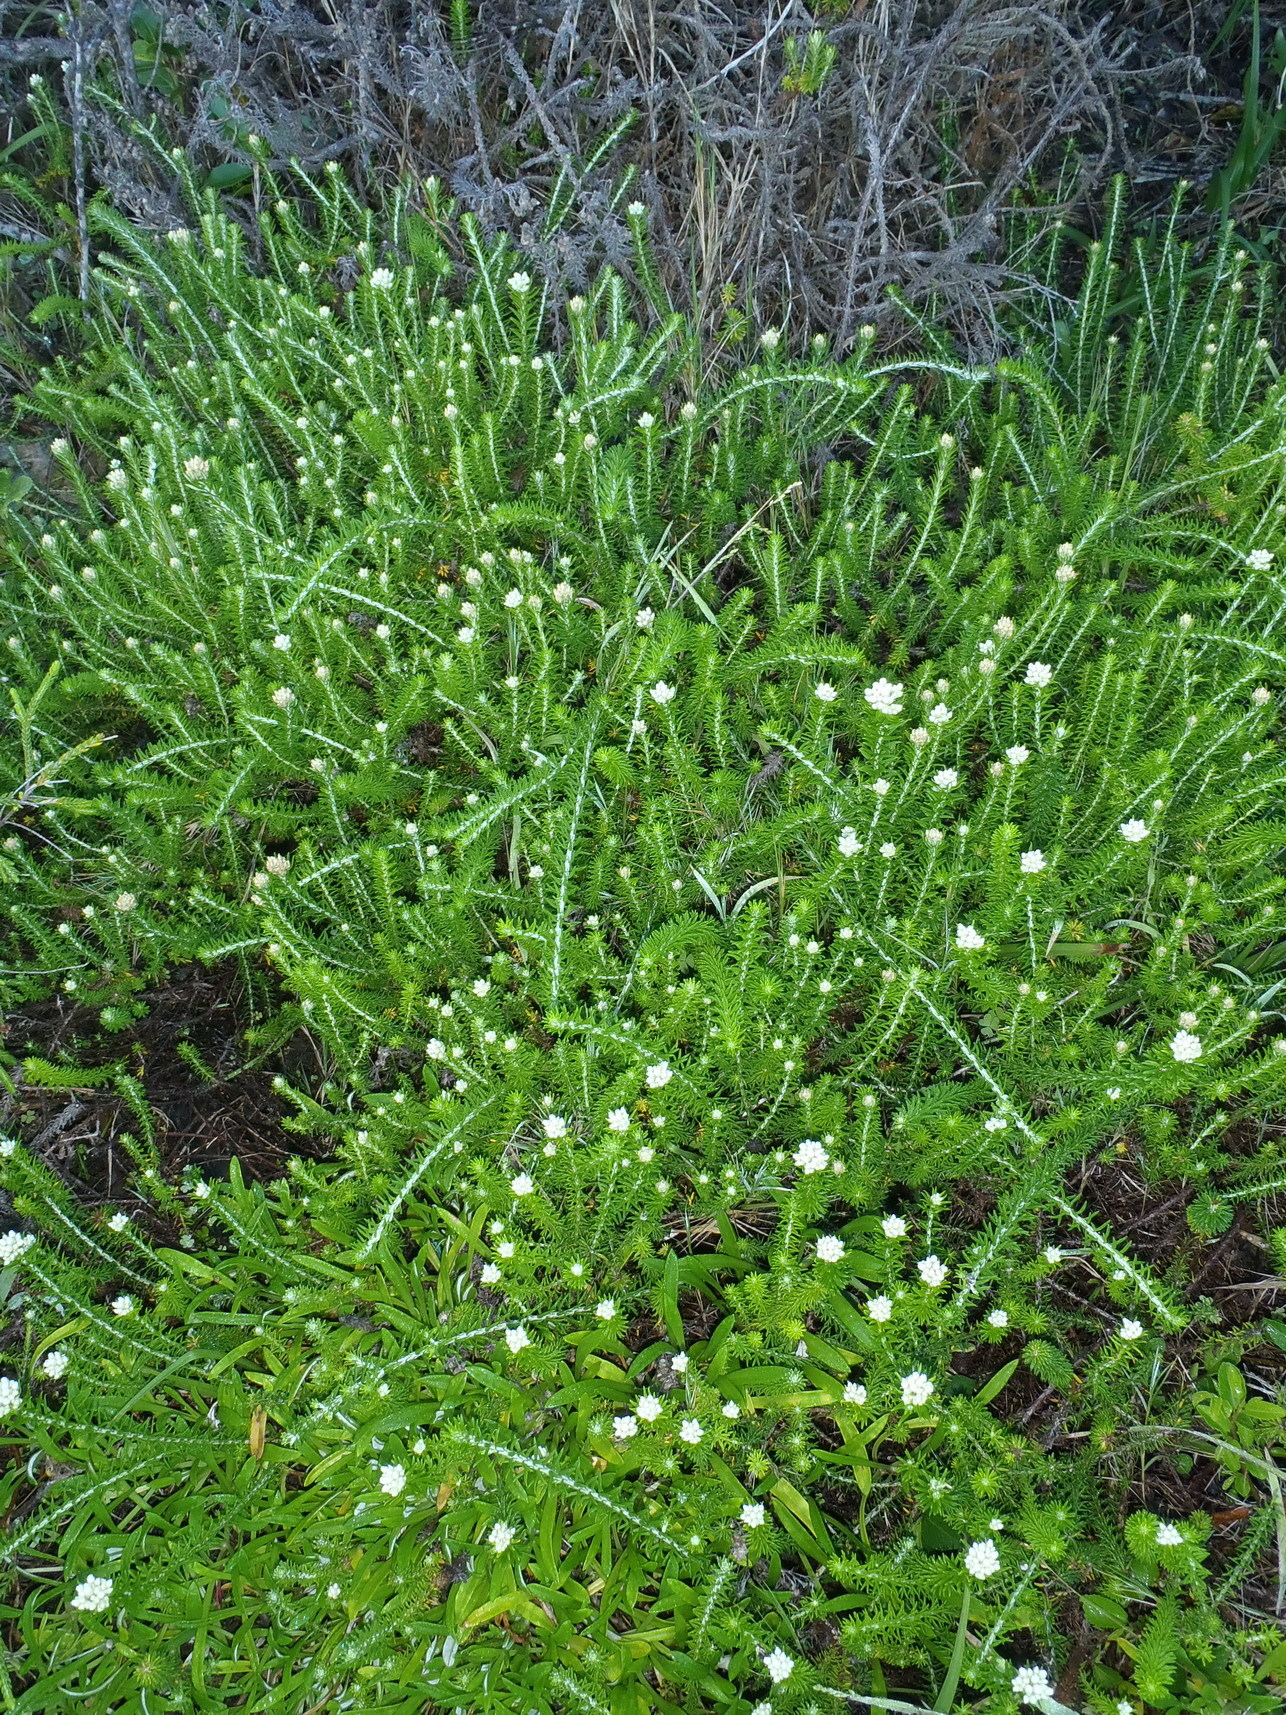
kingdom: Plantae
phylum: Tracheophyta
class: Magnoliopsida
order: Asterales
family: Asteraceae
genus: Helichrysum
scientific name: Helichrysum teretifolium
